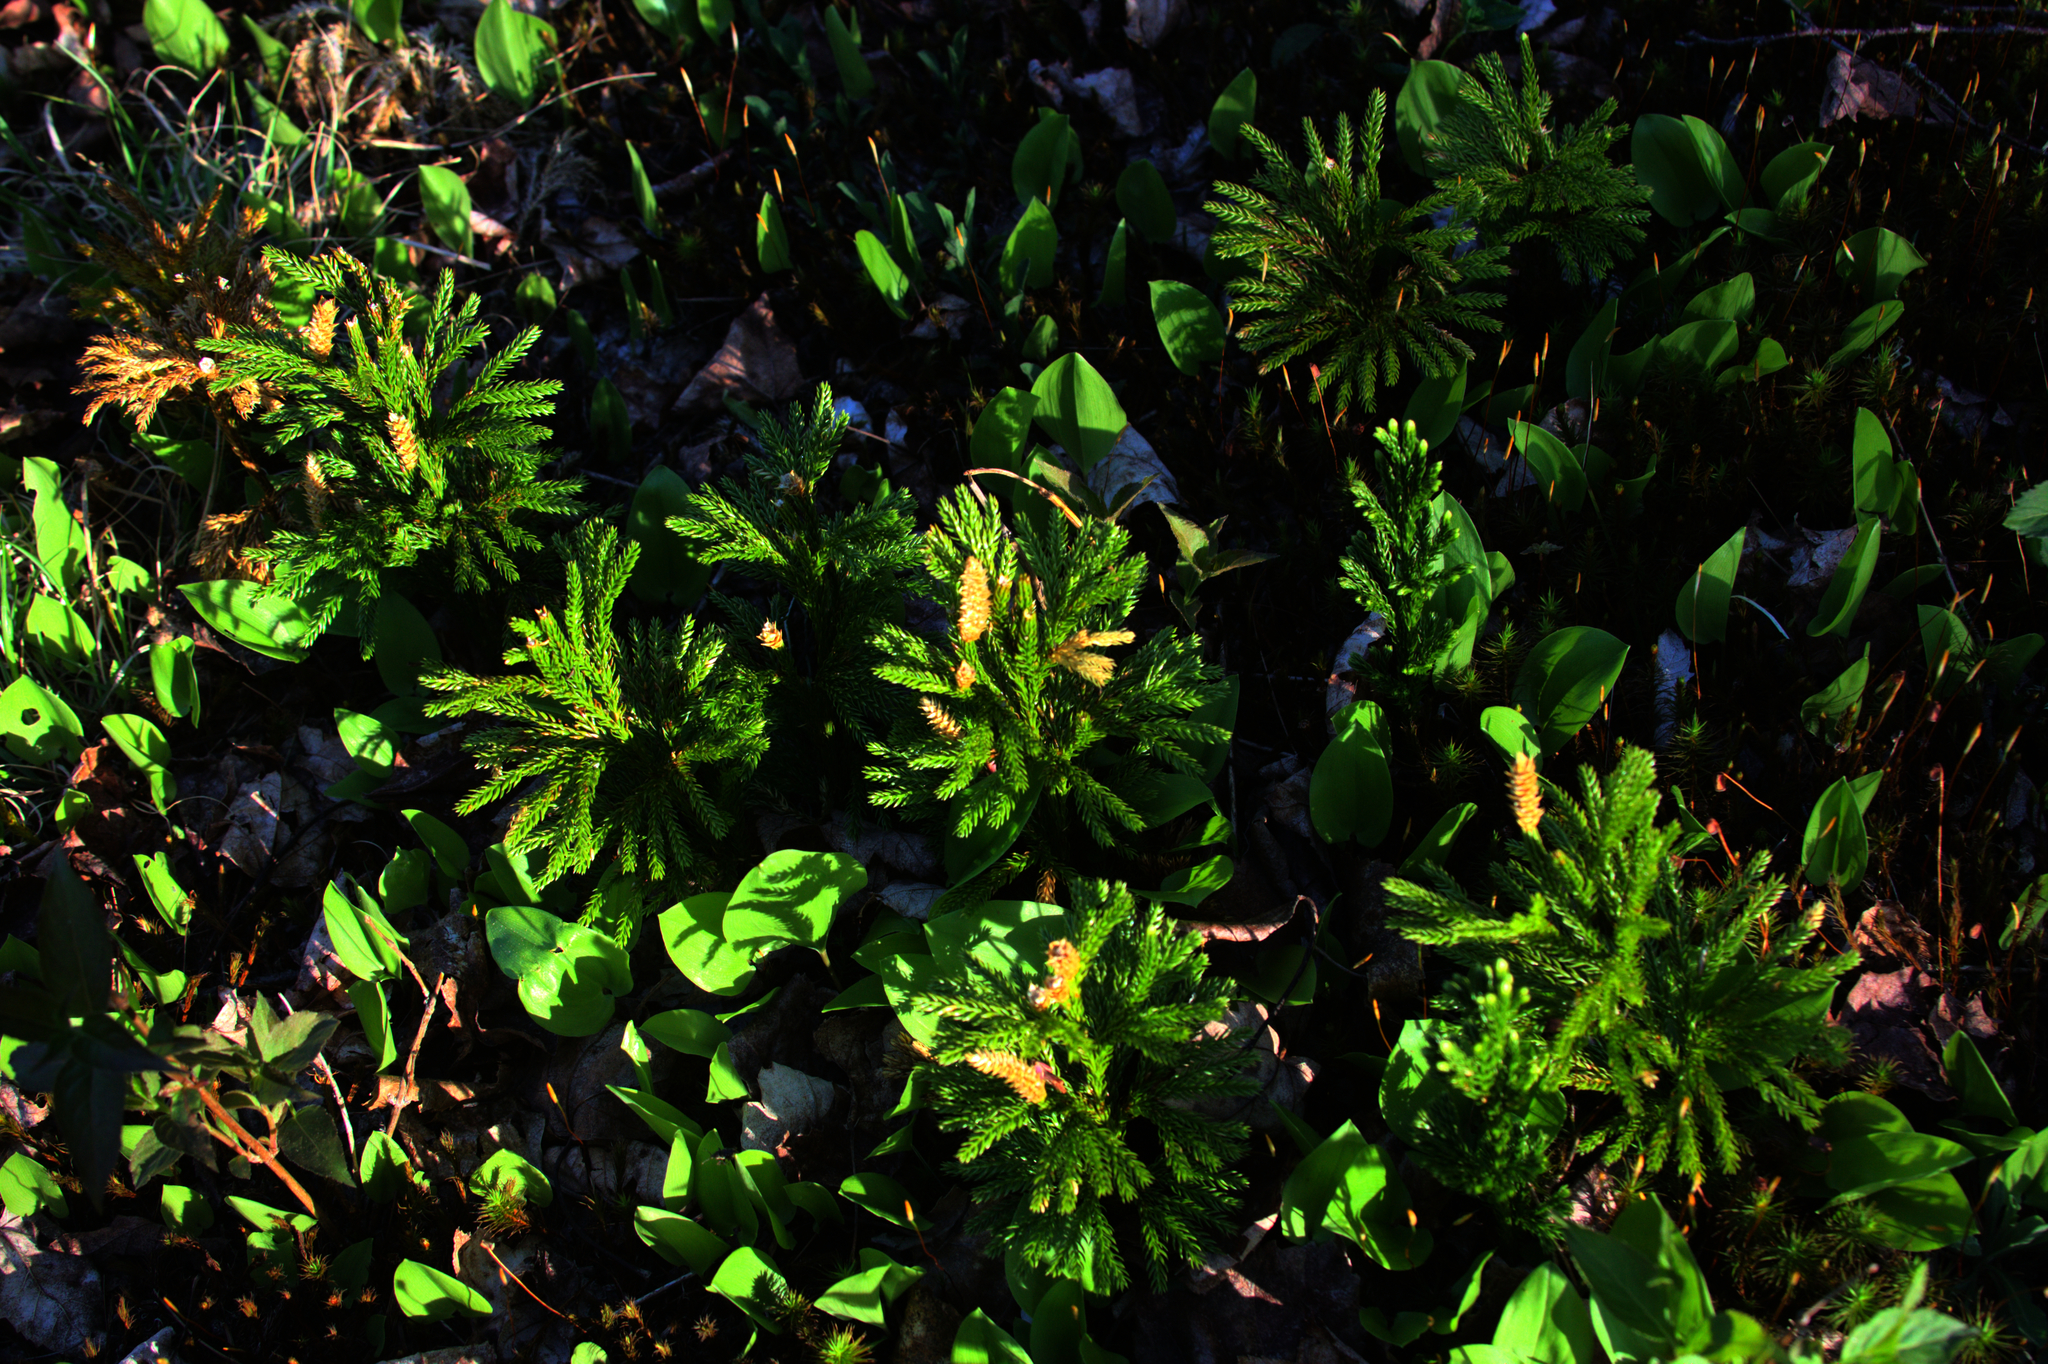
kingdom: Plantae
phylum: Tracheophyta
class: Liliopsida
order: Asparagales
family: Asparagaceae
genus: Maianthemum
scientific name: Maianthemum canadense
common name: False lily-of-the-valley
